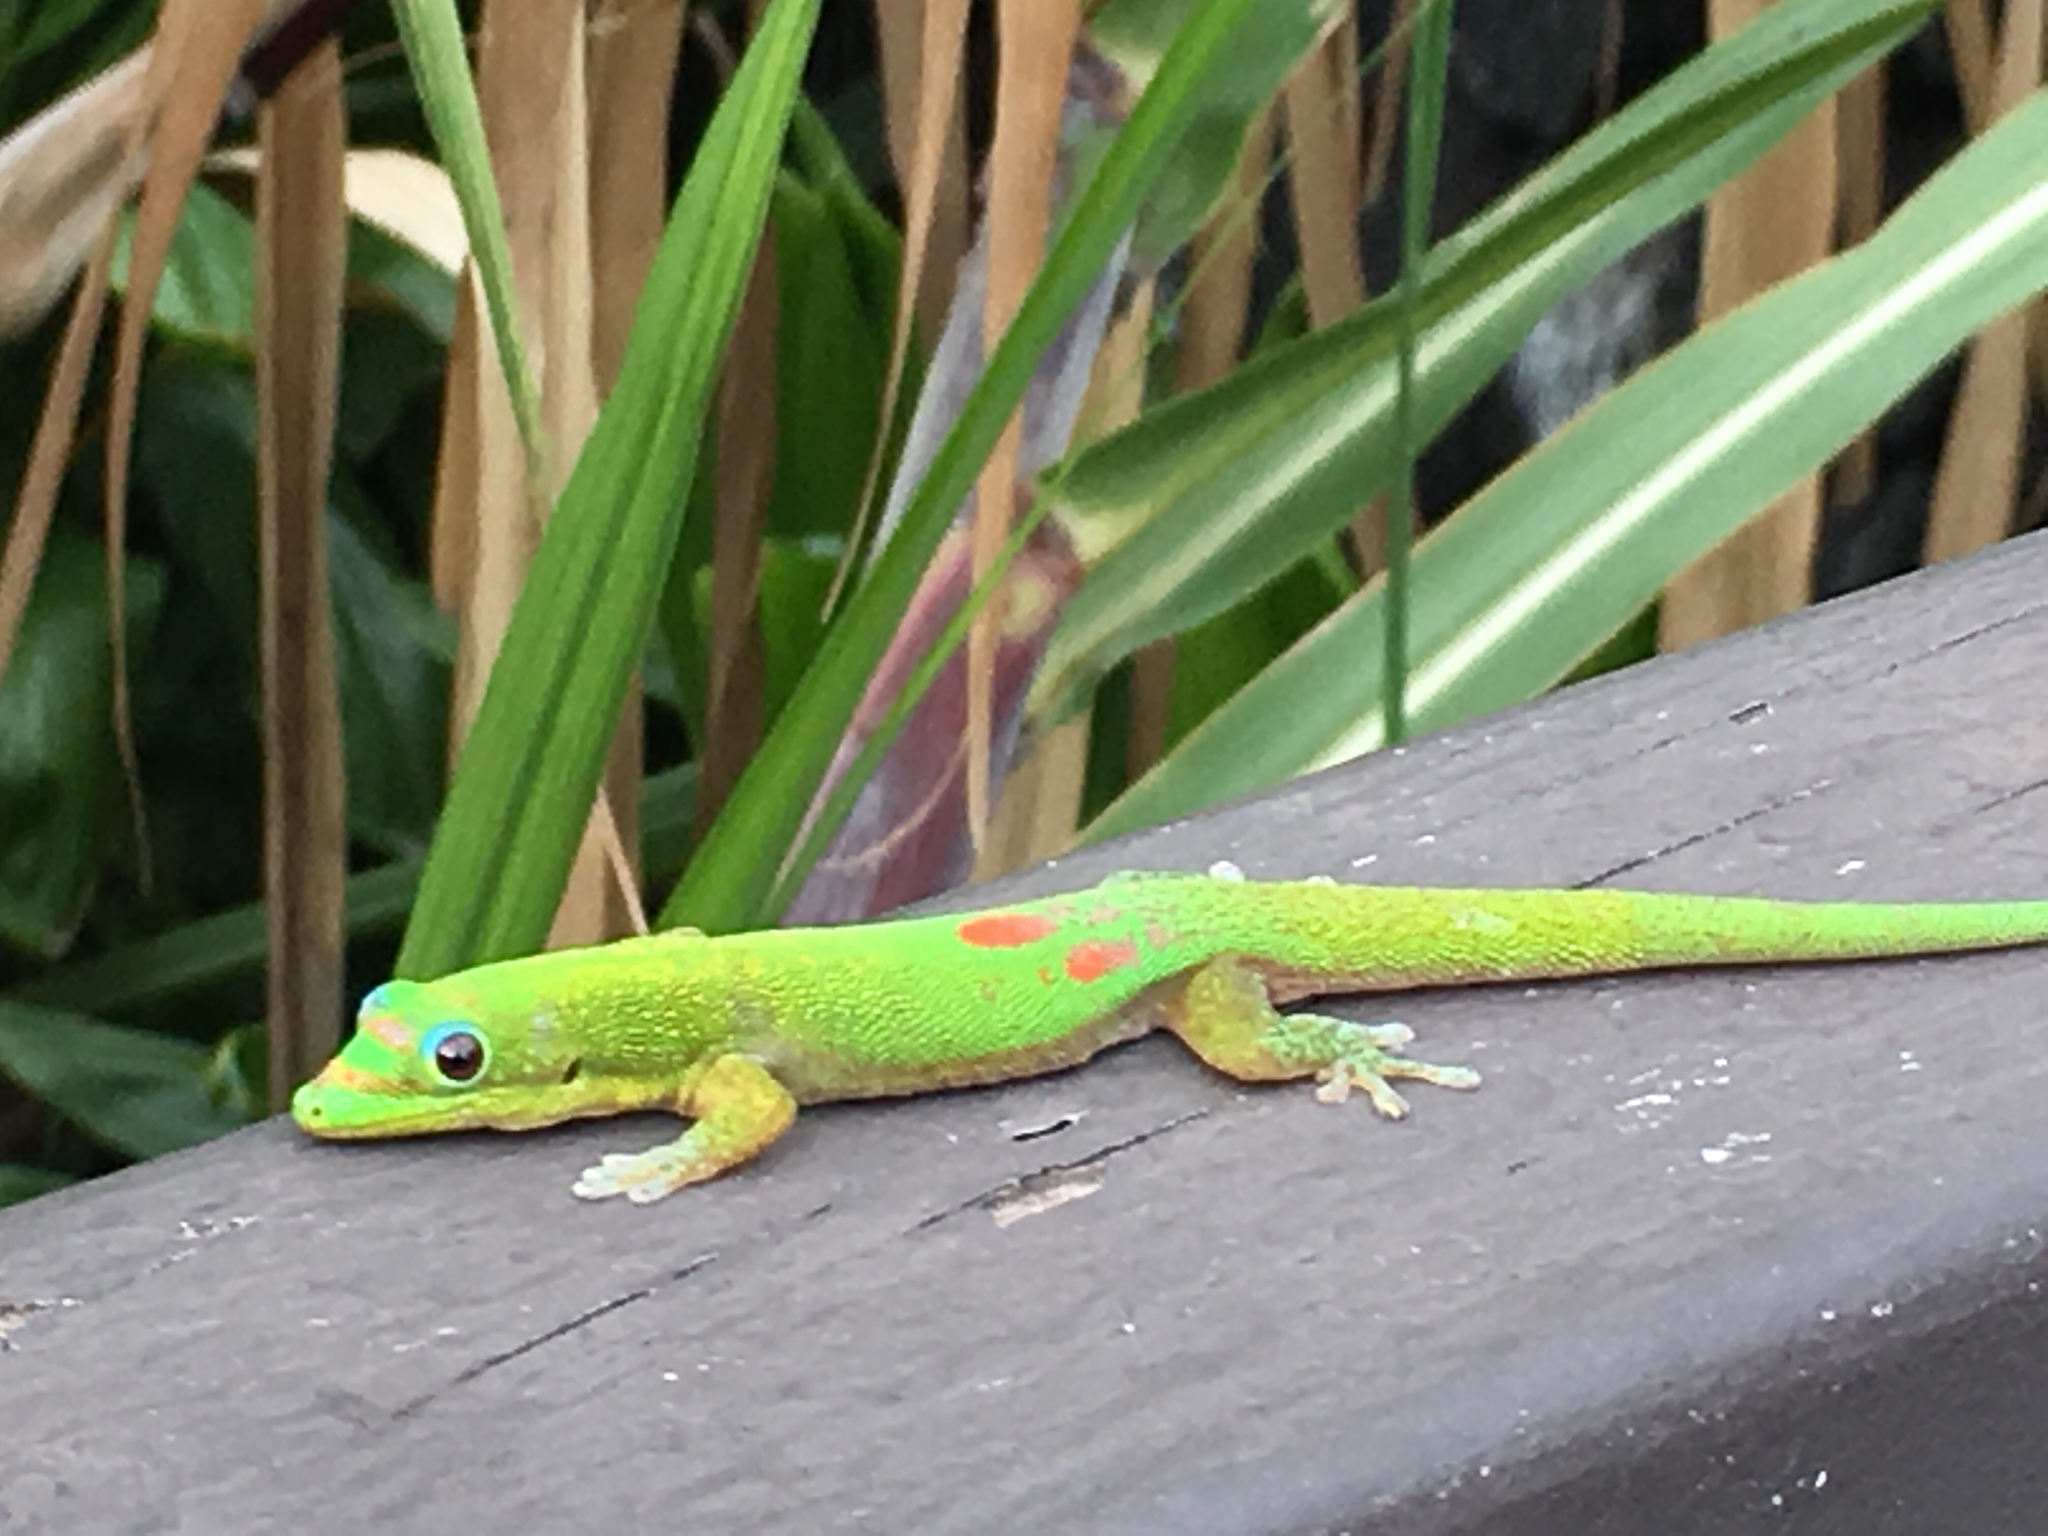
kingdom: Animalia
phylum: Chordata
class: Squamata
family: Gekkonidae
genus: Phelsuma
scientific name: Phelsuma laticauda
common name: Gold dust day gecko
